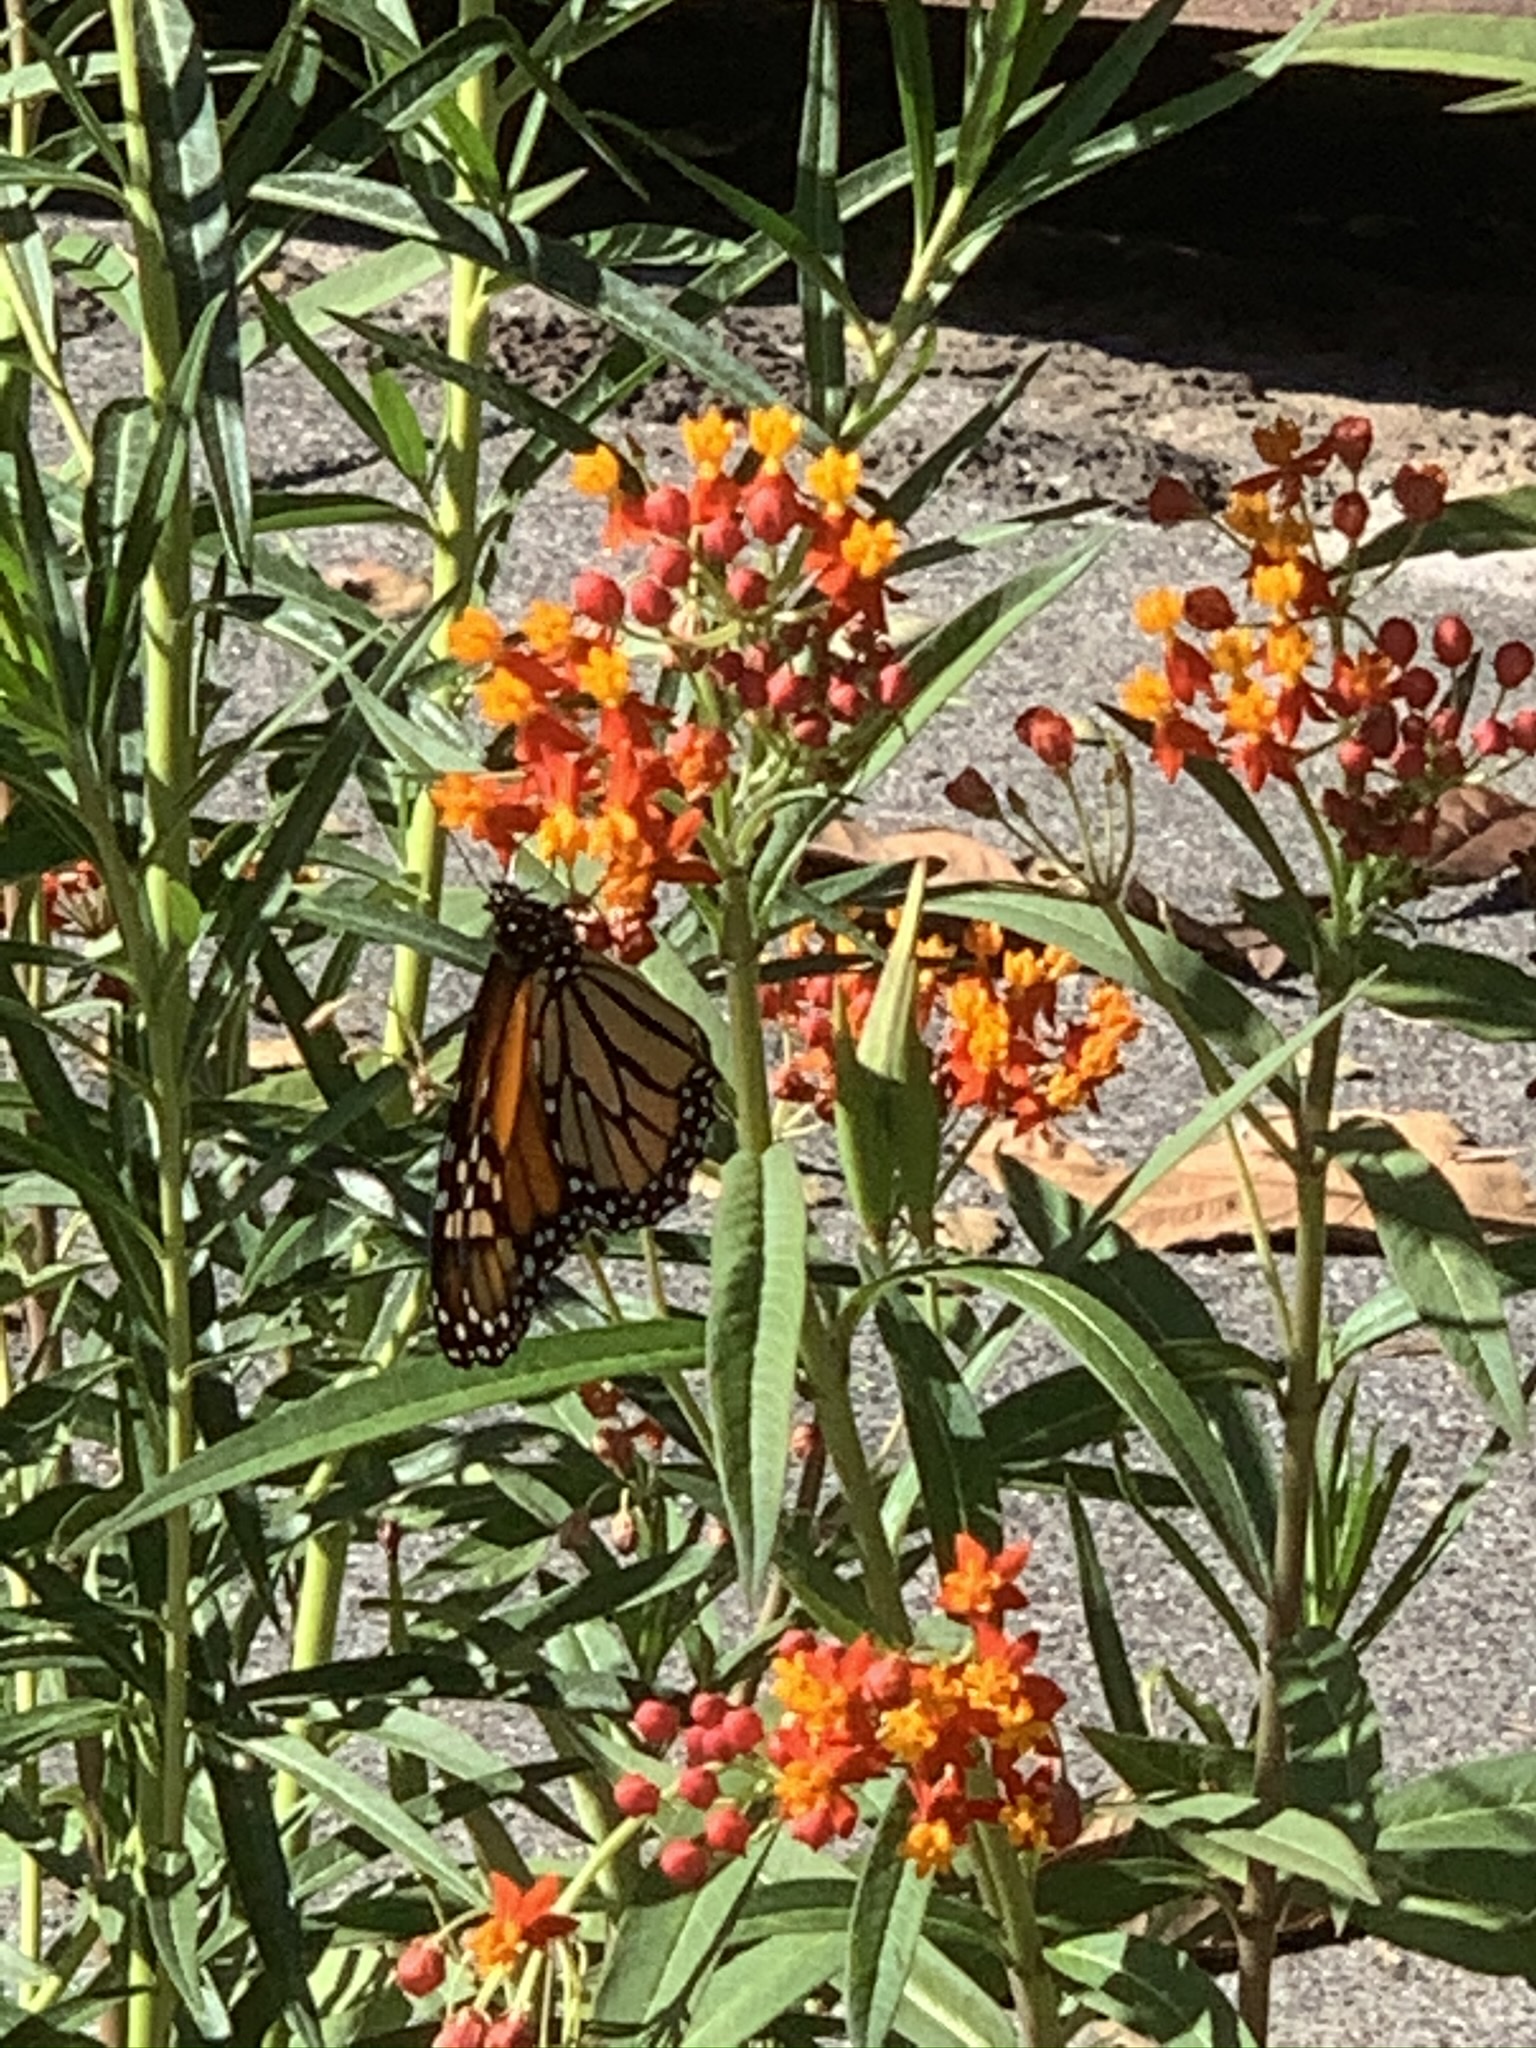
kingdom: Animalia
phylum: Arthropoda
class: Insecta
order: Lepidoptera
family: Nymphalidae
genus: Danaus
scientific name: Danaus plexippus
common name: Monarch
